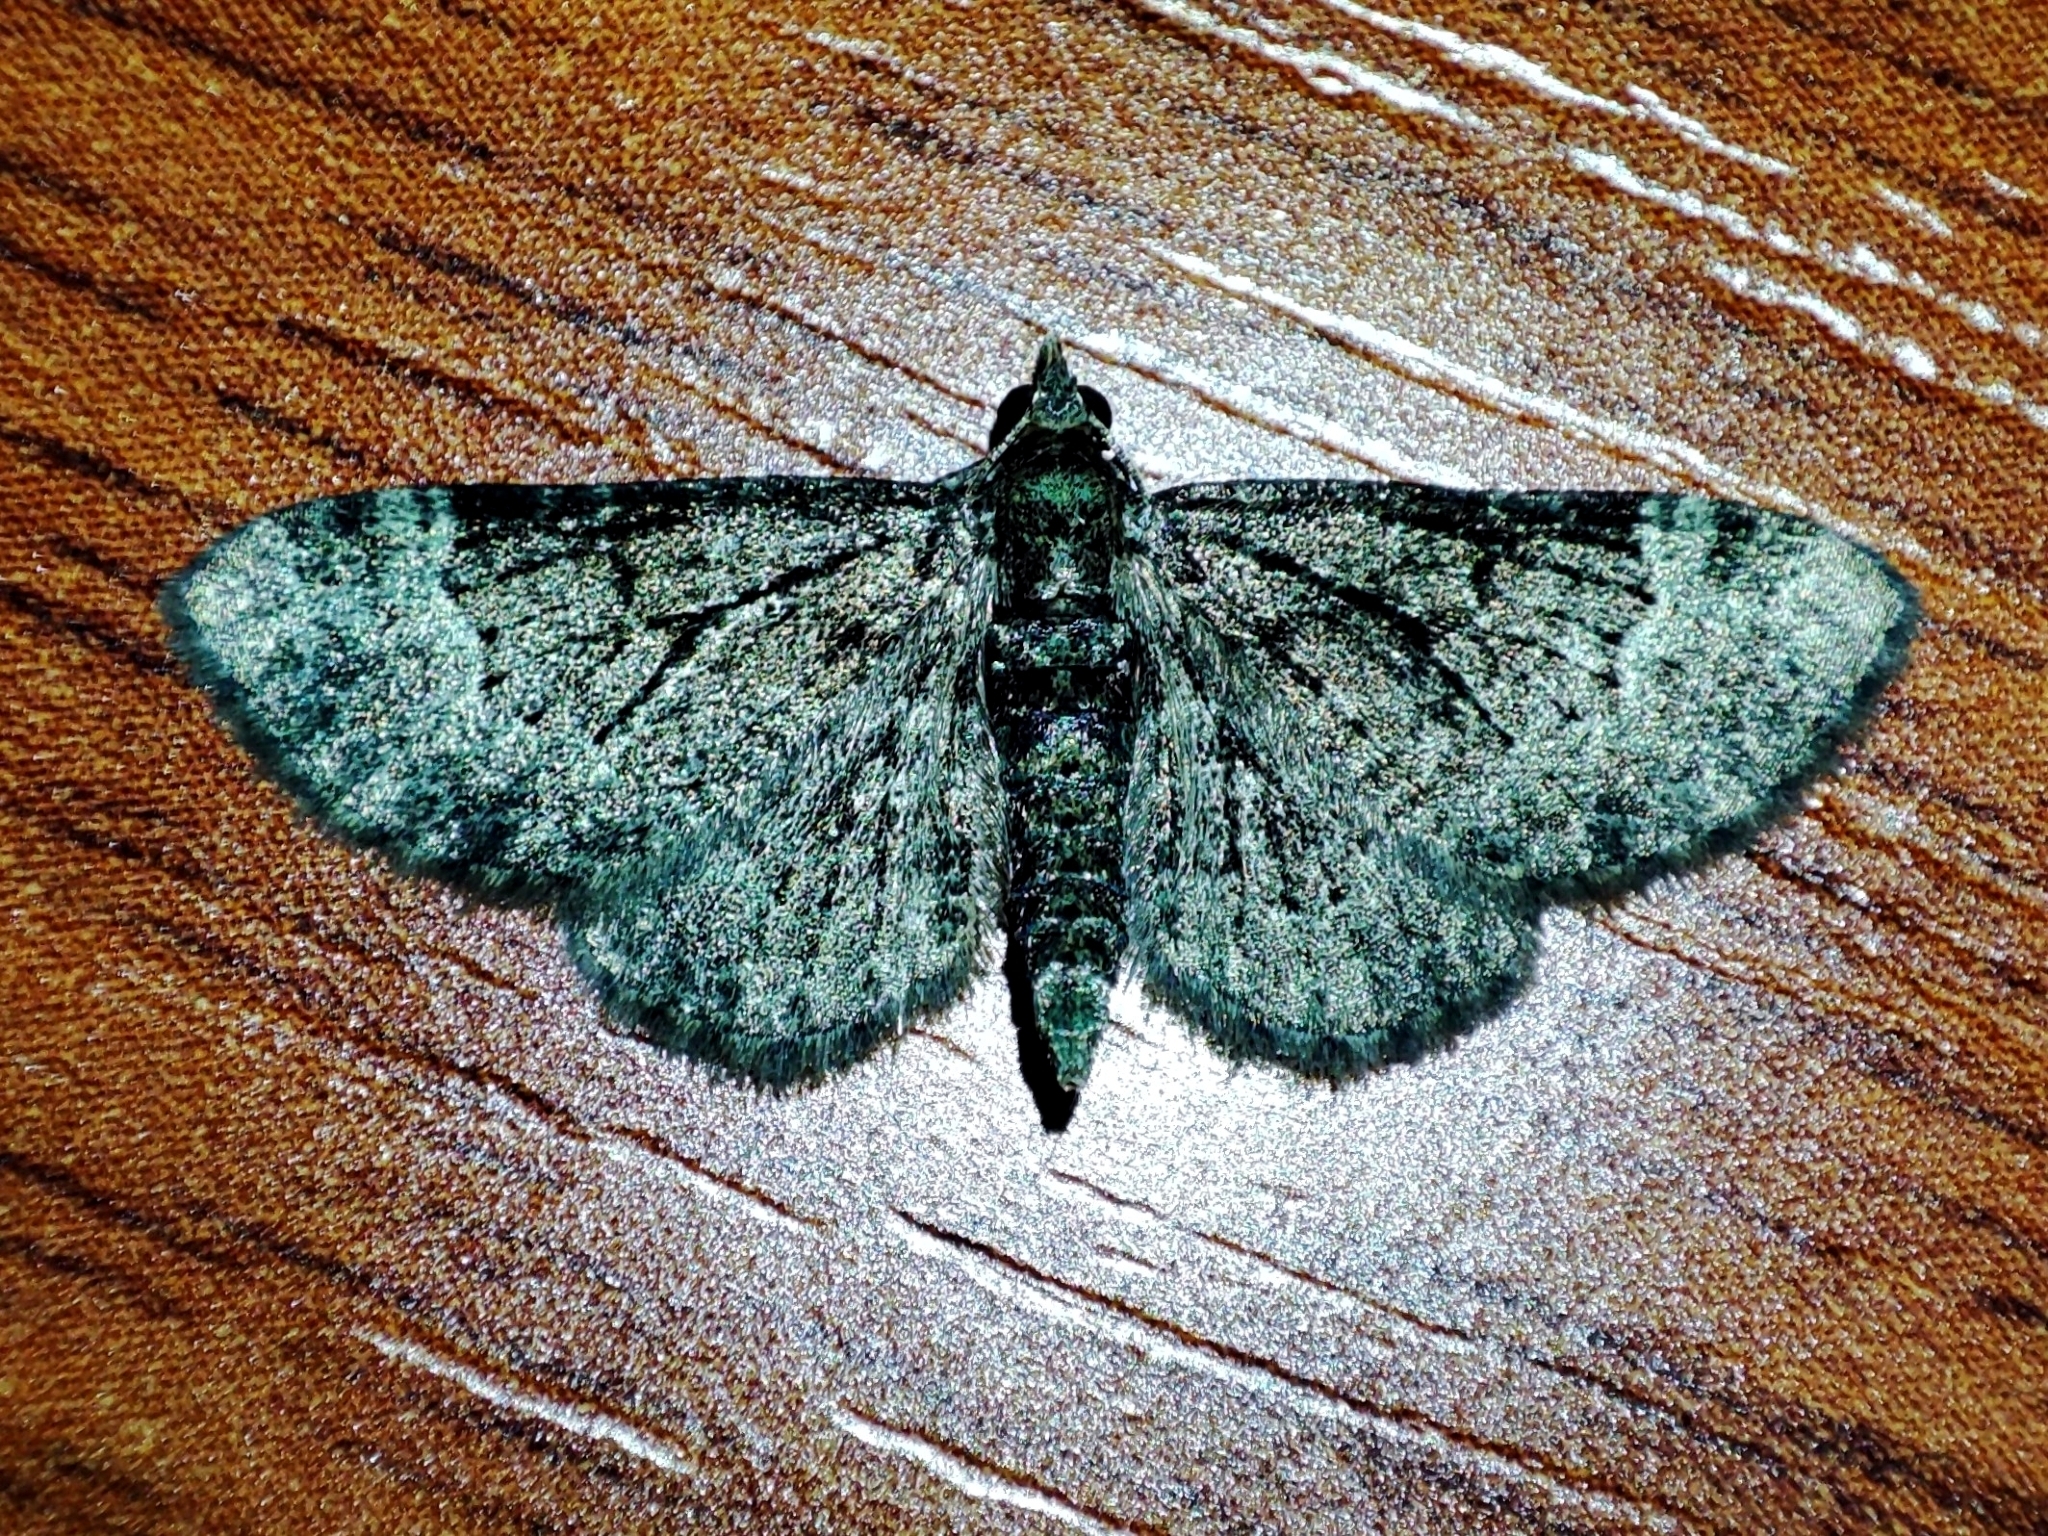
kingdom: Animalia
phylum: Arthropoda
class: Insecta
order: Lepidoptera
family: Geometridae
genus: Pasiphila
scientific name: Pasiphila rectangulata
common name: Green pug
